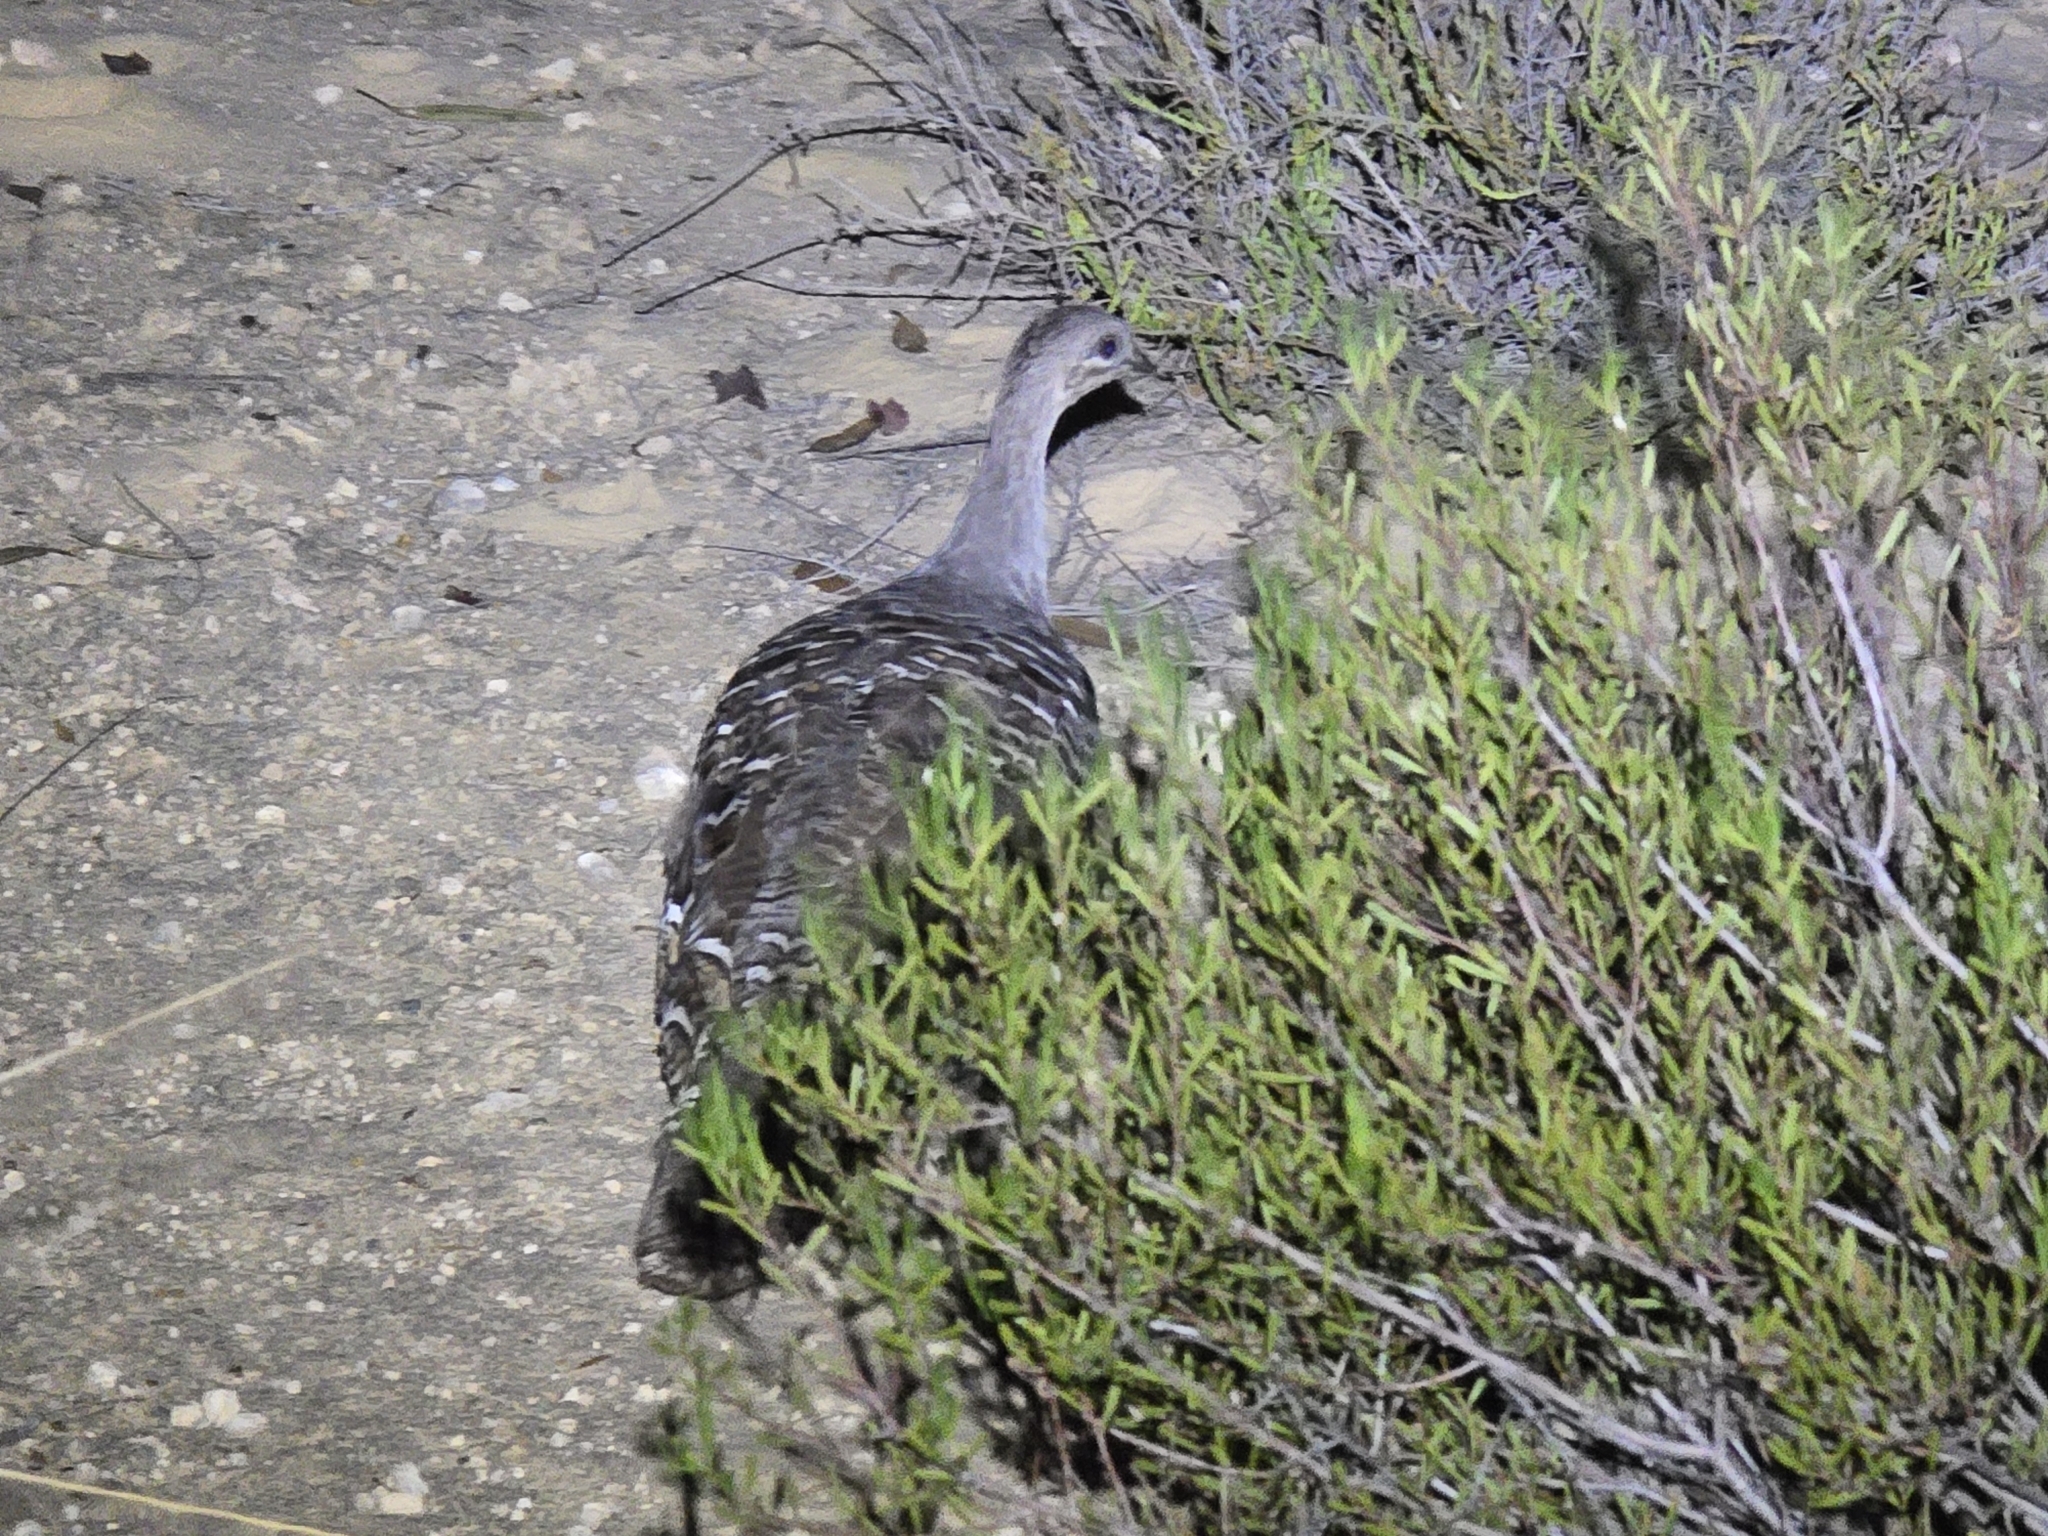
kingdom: Animalia
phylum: Chordata
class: Aves
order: Galliformes
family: Megapodiidae
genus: Leipoa
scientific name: Leipoa ocellata
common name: Malleefowl
